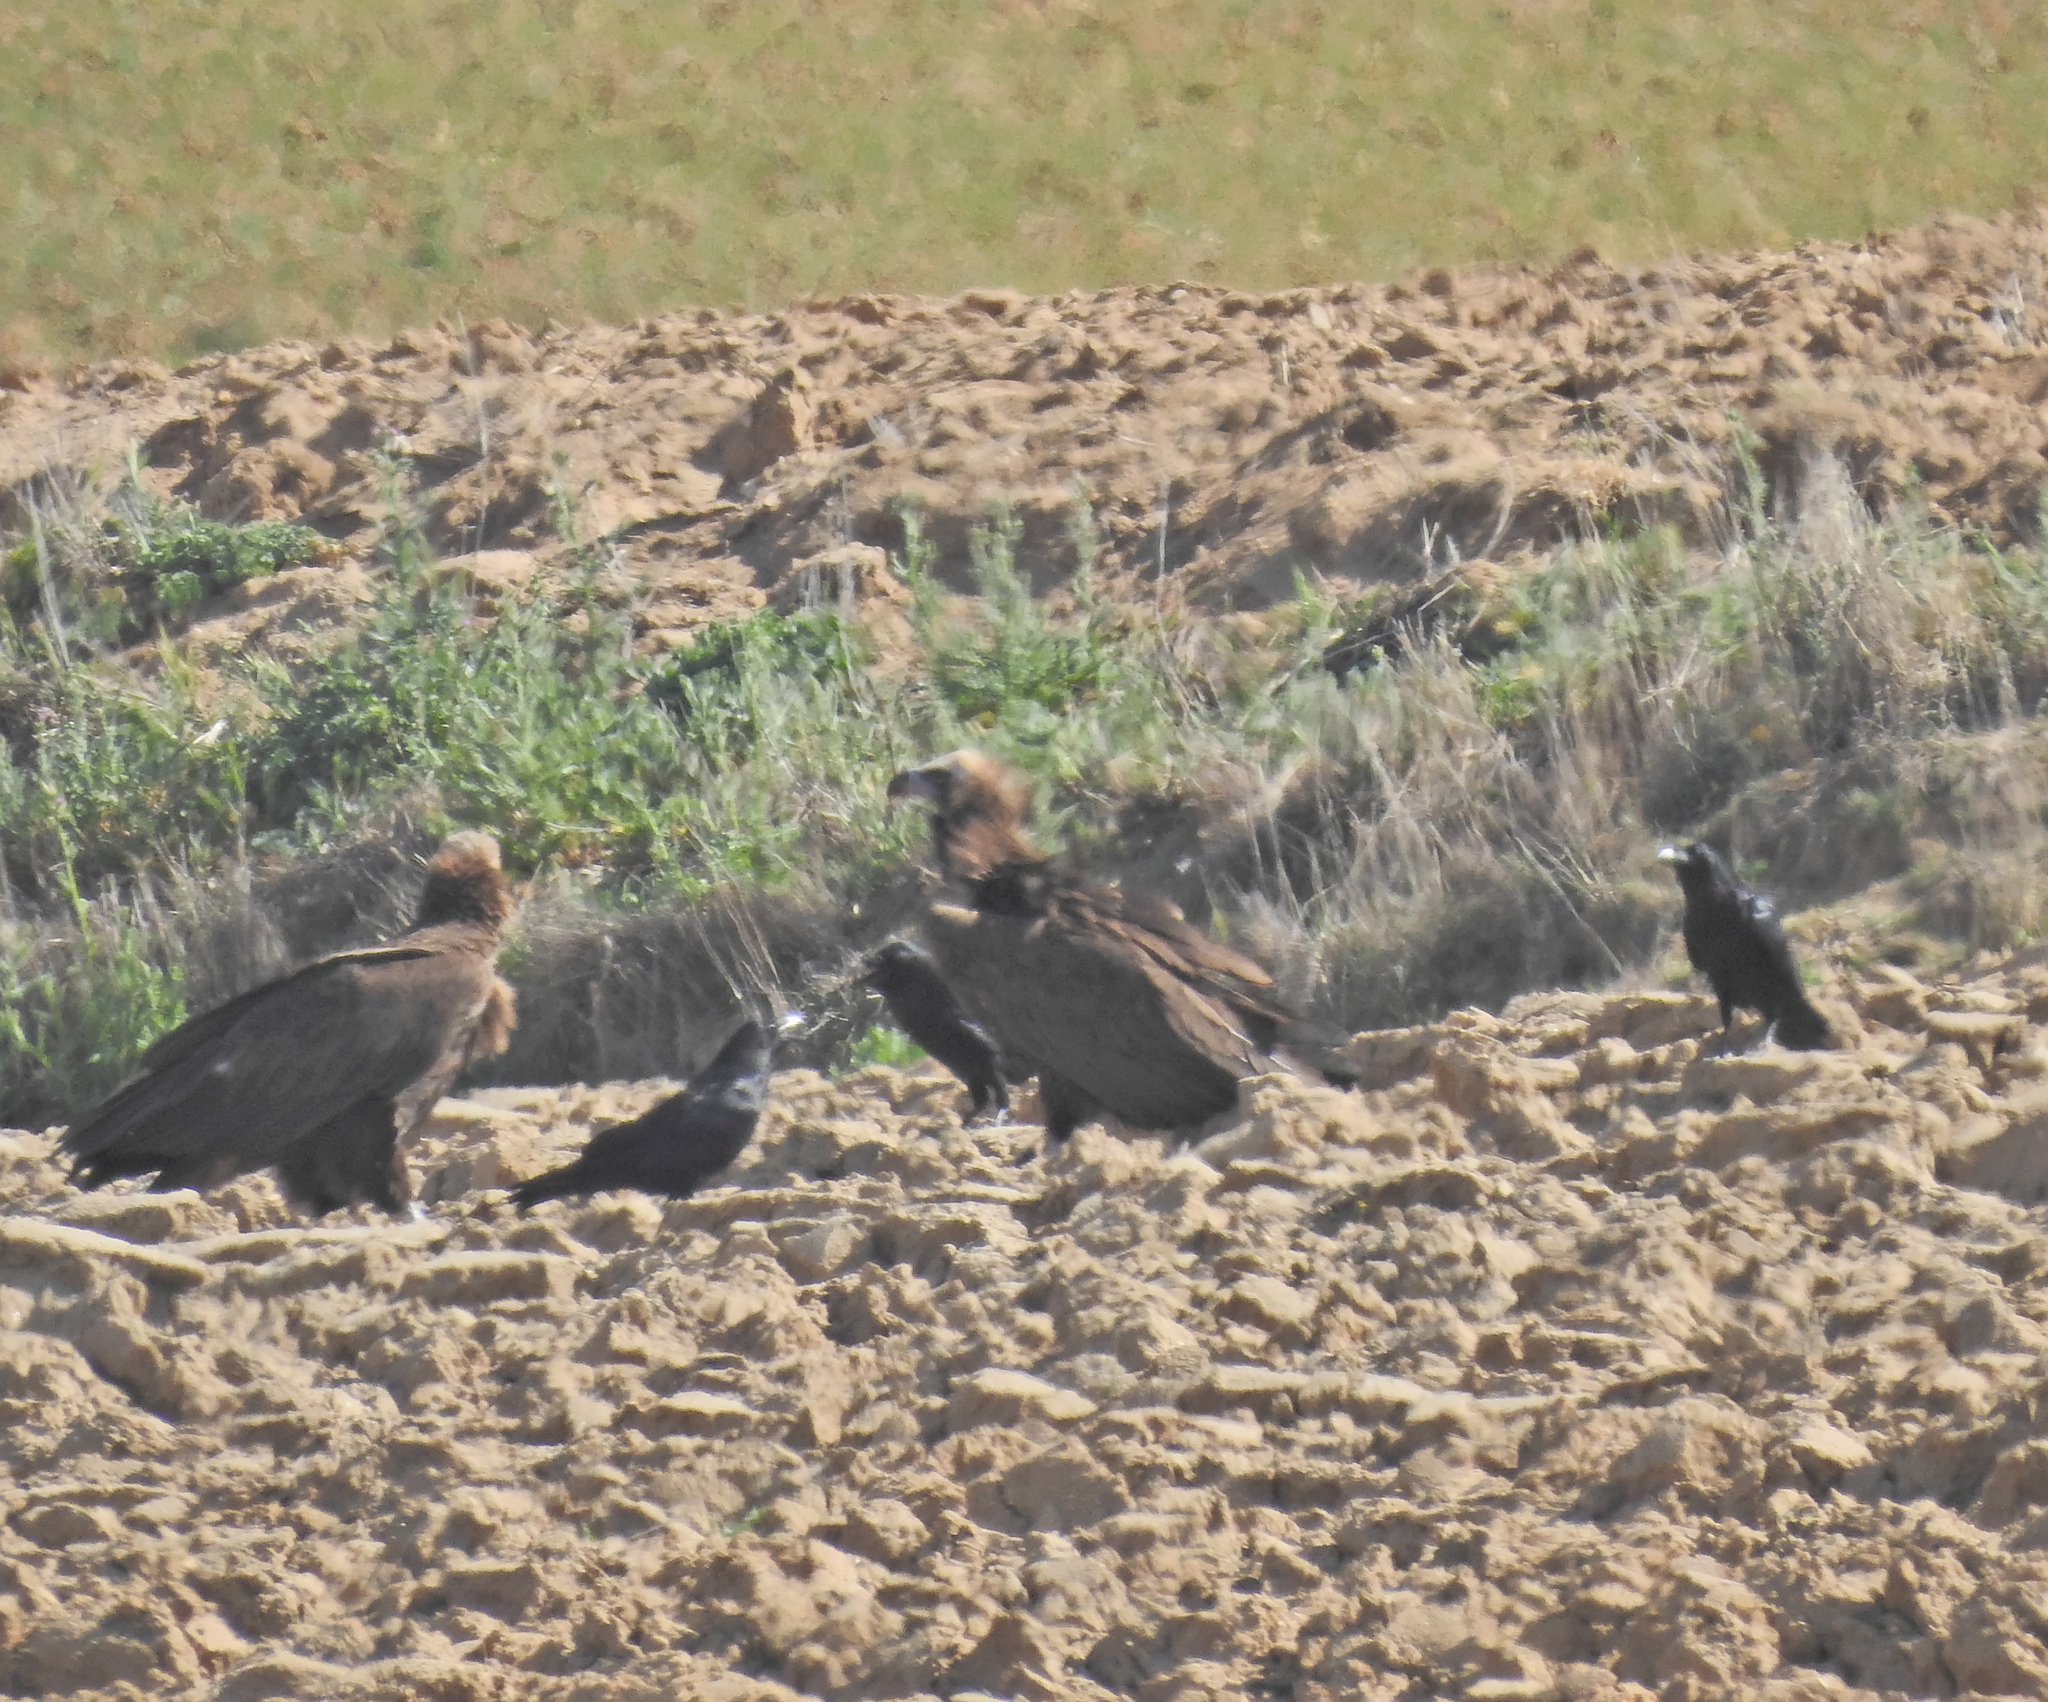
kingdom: Animalia
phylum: Chordata
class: Aves
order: Passeriformes
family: Corvidae
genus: Corvus
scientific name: Corvus corax
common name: Common raven
